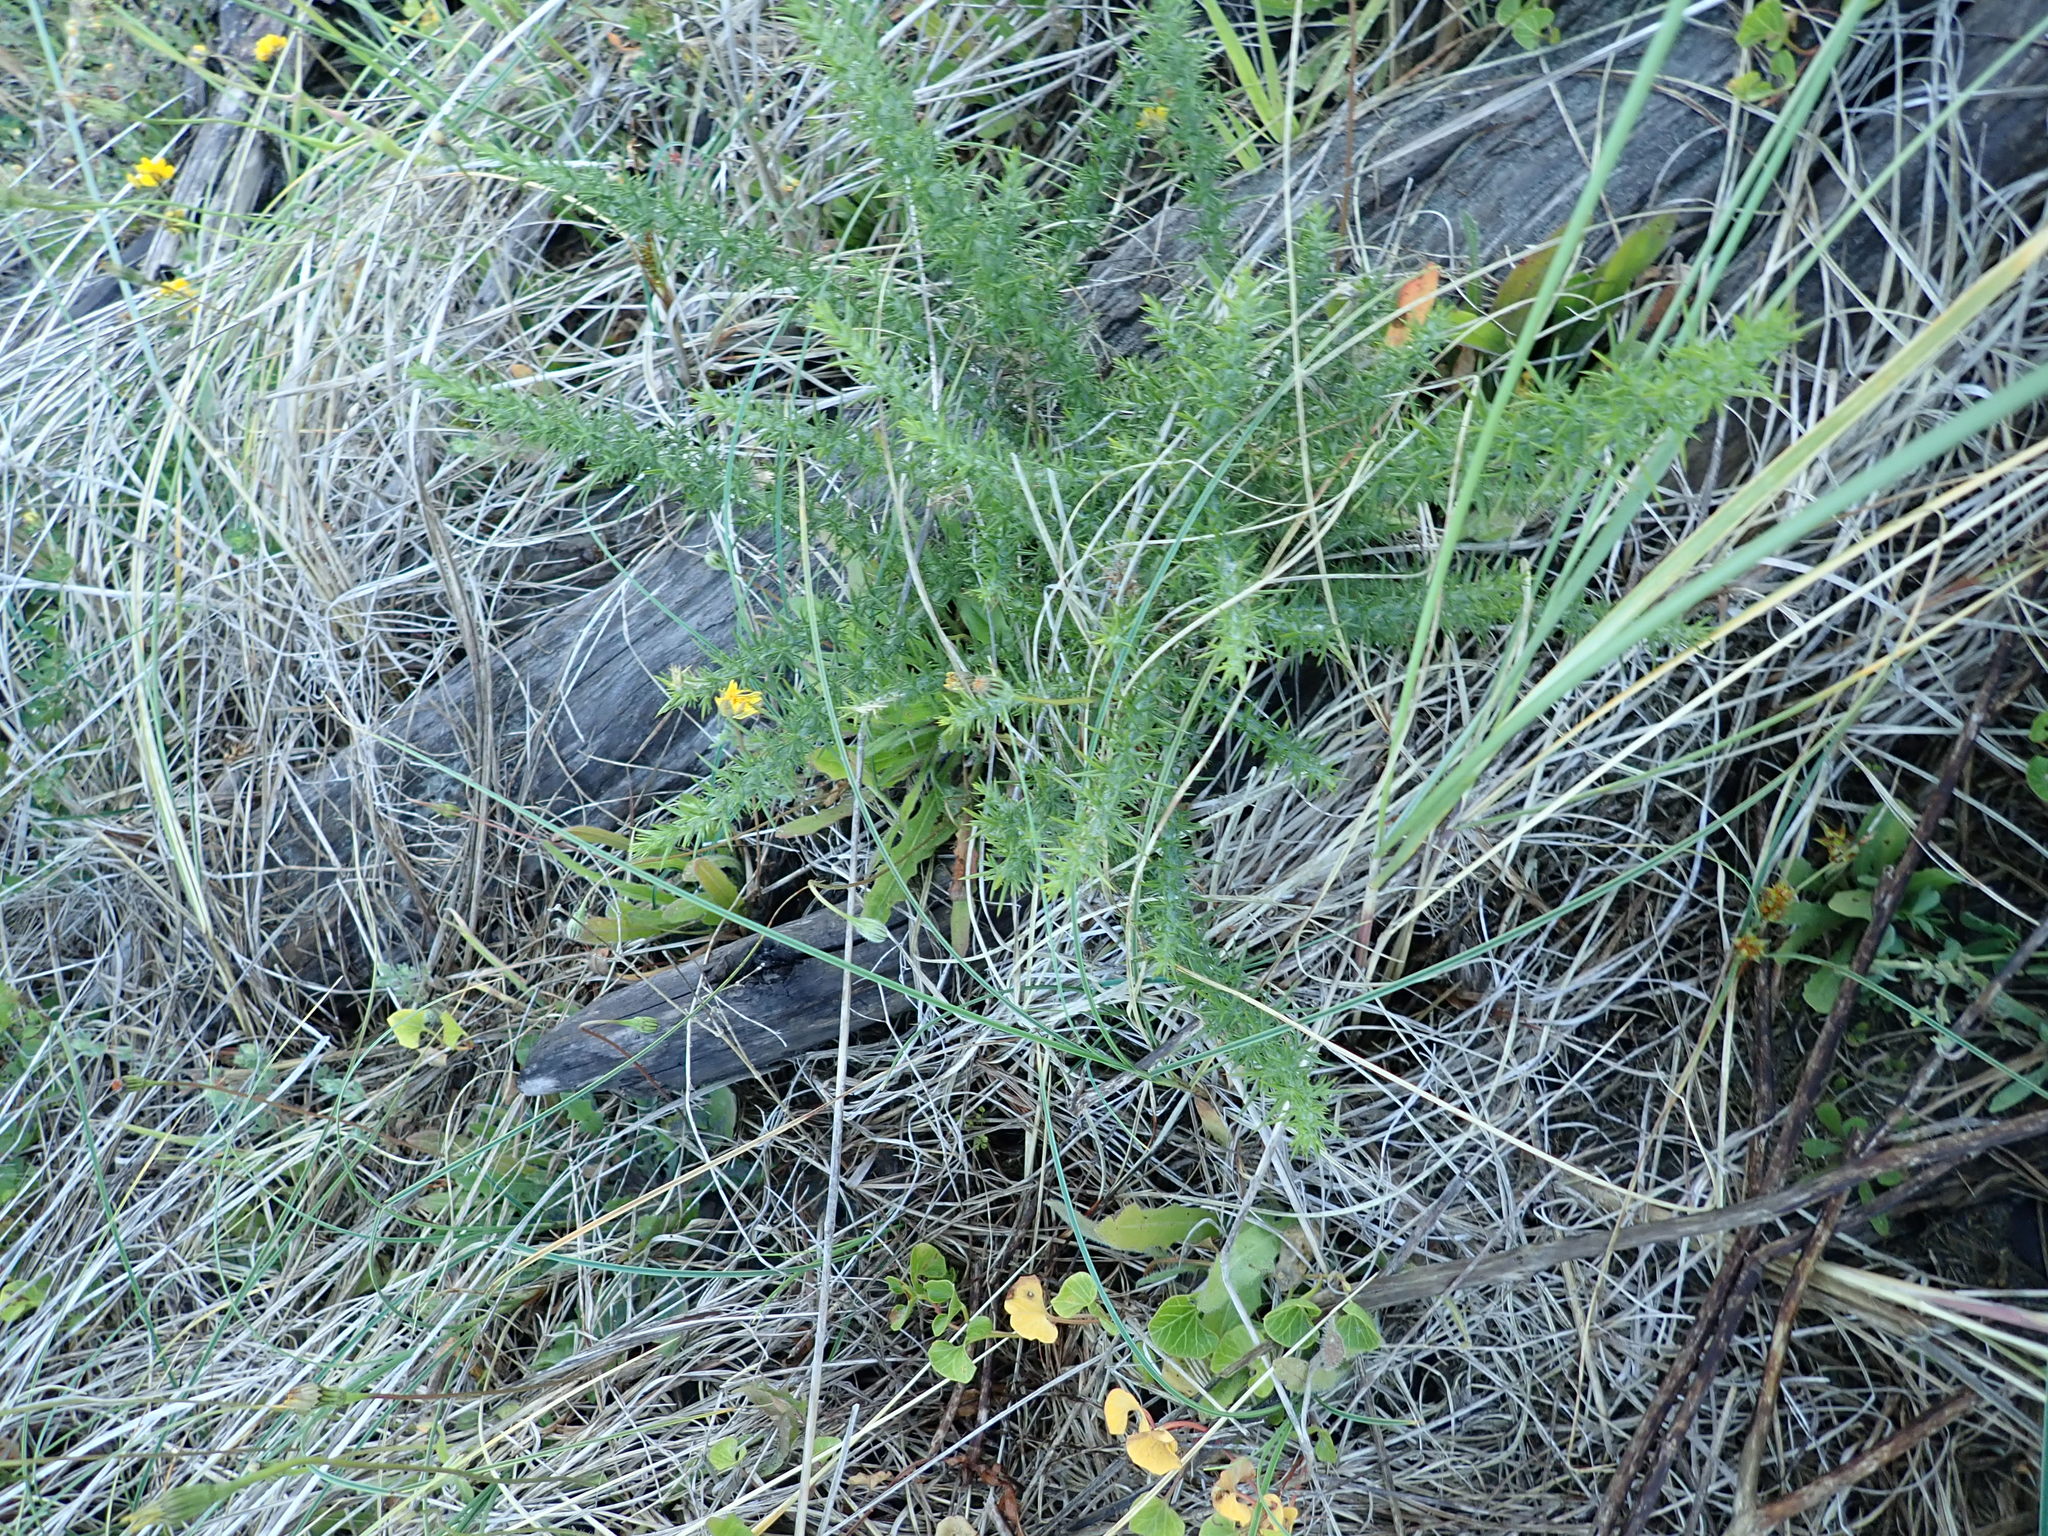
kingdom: Plantae
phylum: Tracheophyta
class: Magnoliopsida
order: Fabales
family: Fabaceae
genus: Ulex
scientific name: Ulex europaeus
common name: Common gorse
